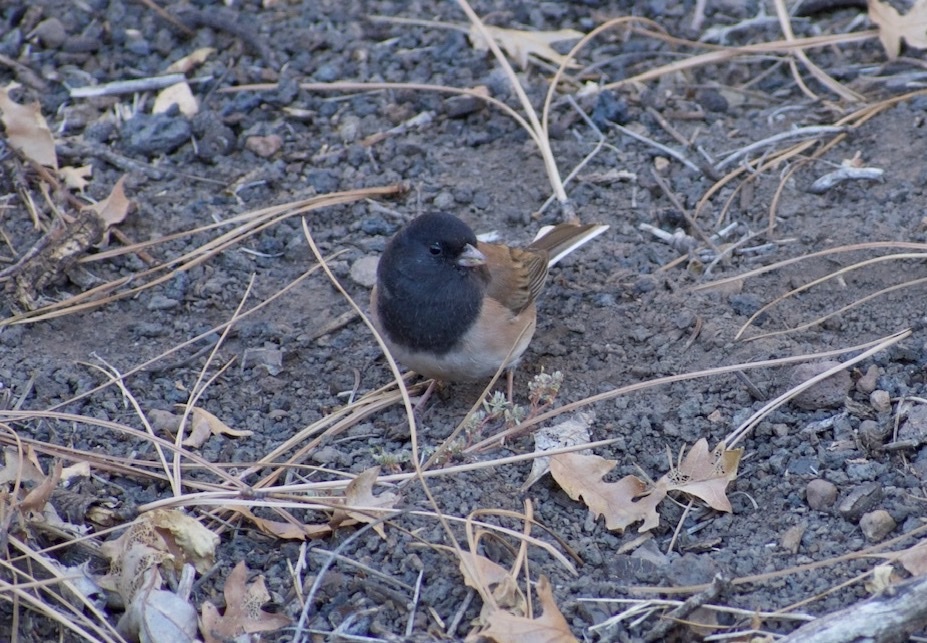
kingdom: Animalia
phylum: Chordata
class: Aves
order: Passeriformes
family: Passerellidae
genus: Junco
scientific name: Junco hyemalis
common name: Dark-eyed junco
